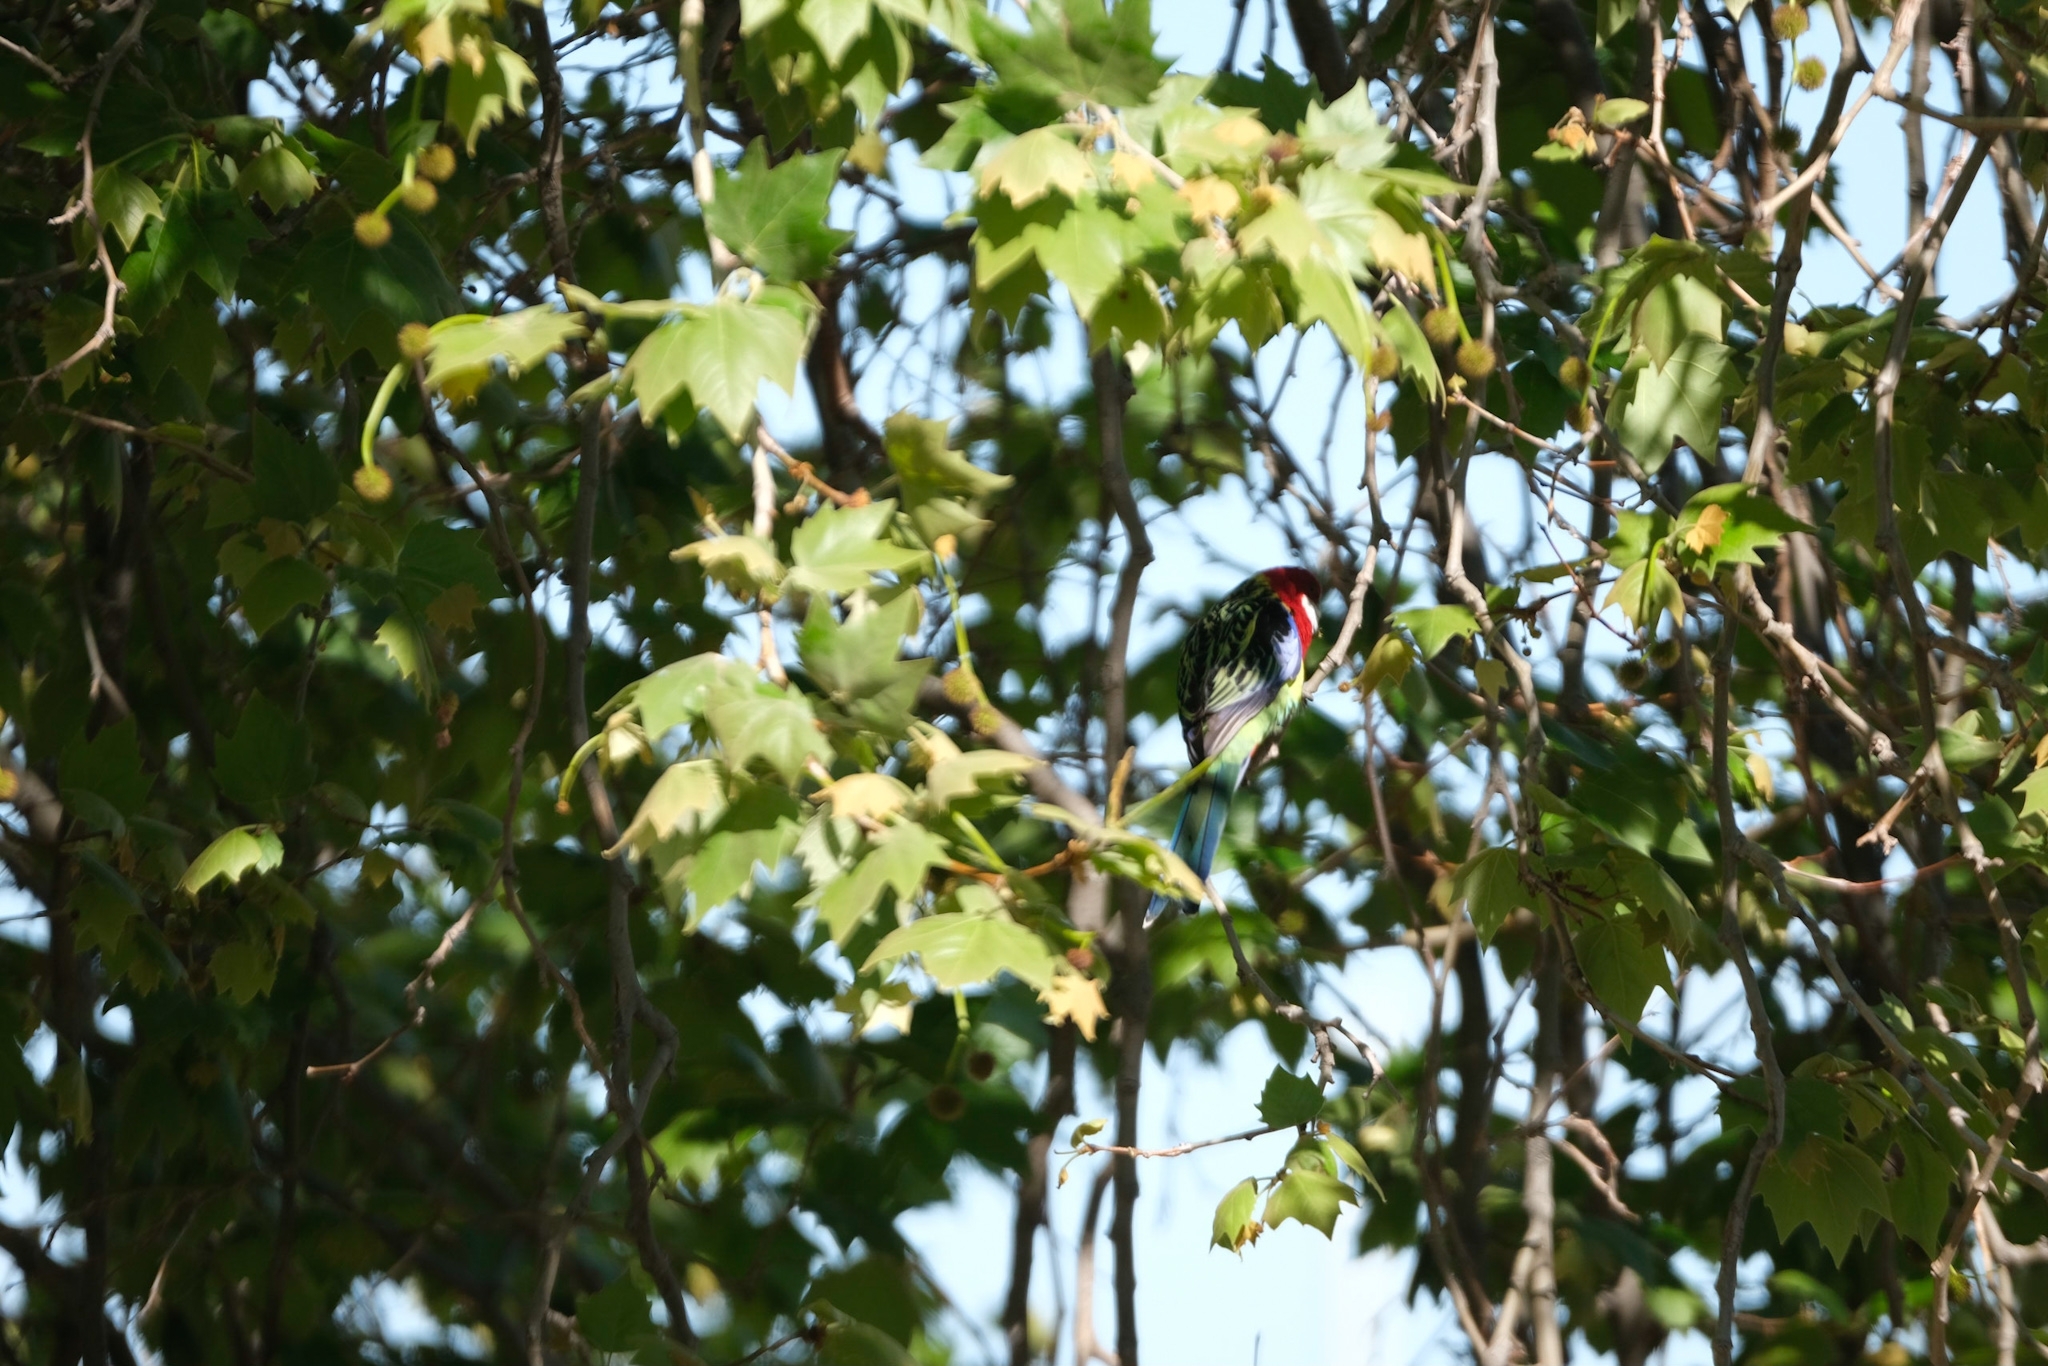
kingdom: Animalia
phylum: Chordata
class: Aves
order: Psittaciformes
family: Psittacidae
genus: Platycercus
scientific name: Platycercus eximius
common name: Eastern rosella
